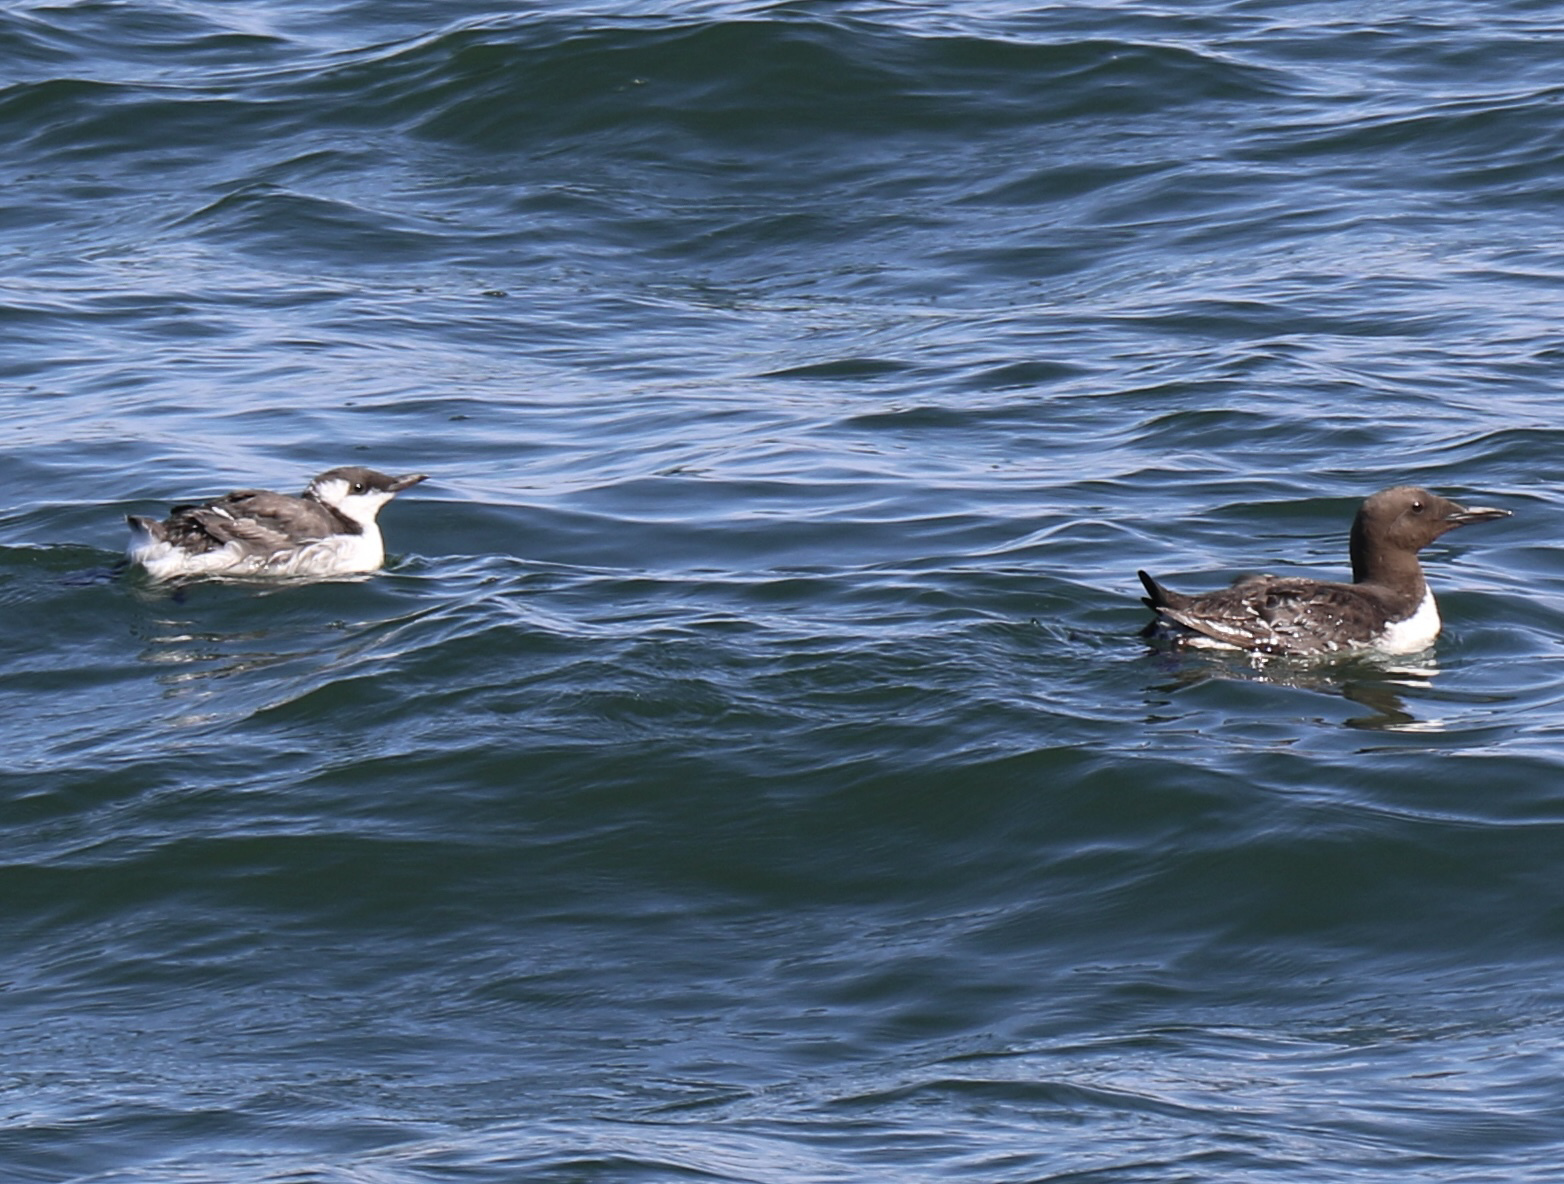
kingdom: Animalia
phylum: Chordata
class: Aves
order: Charadriiformes
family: Alcidae
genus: Uria
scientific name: Uria aalge
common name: Common murre
